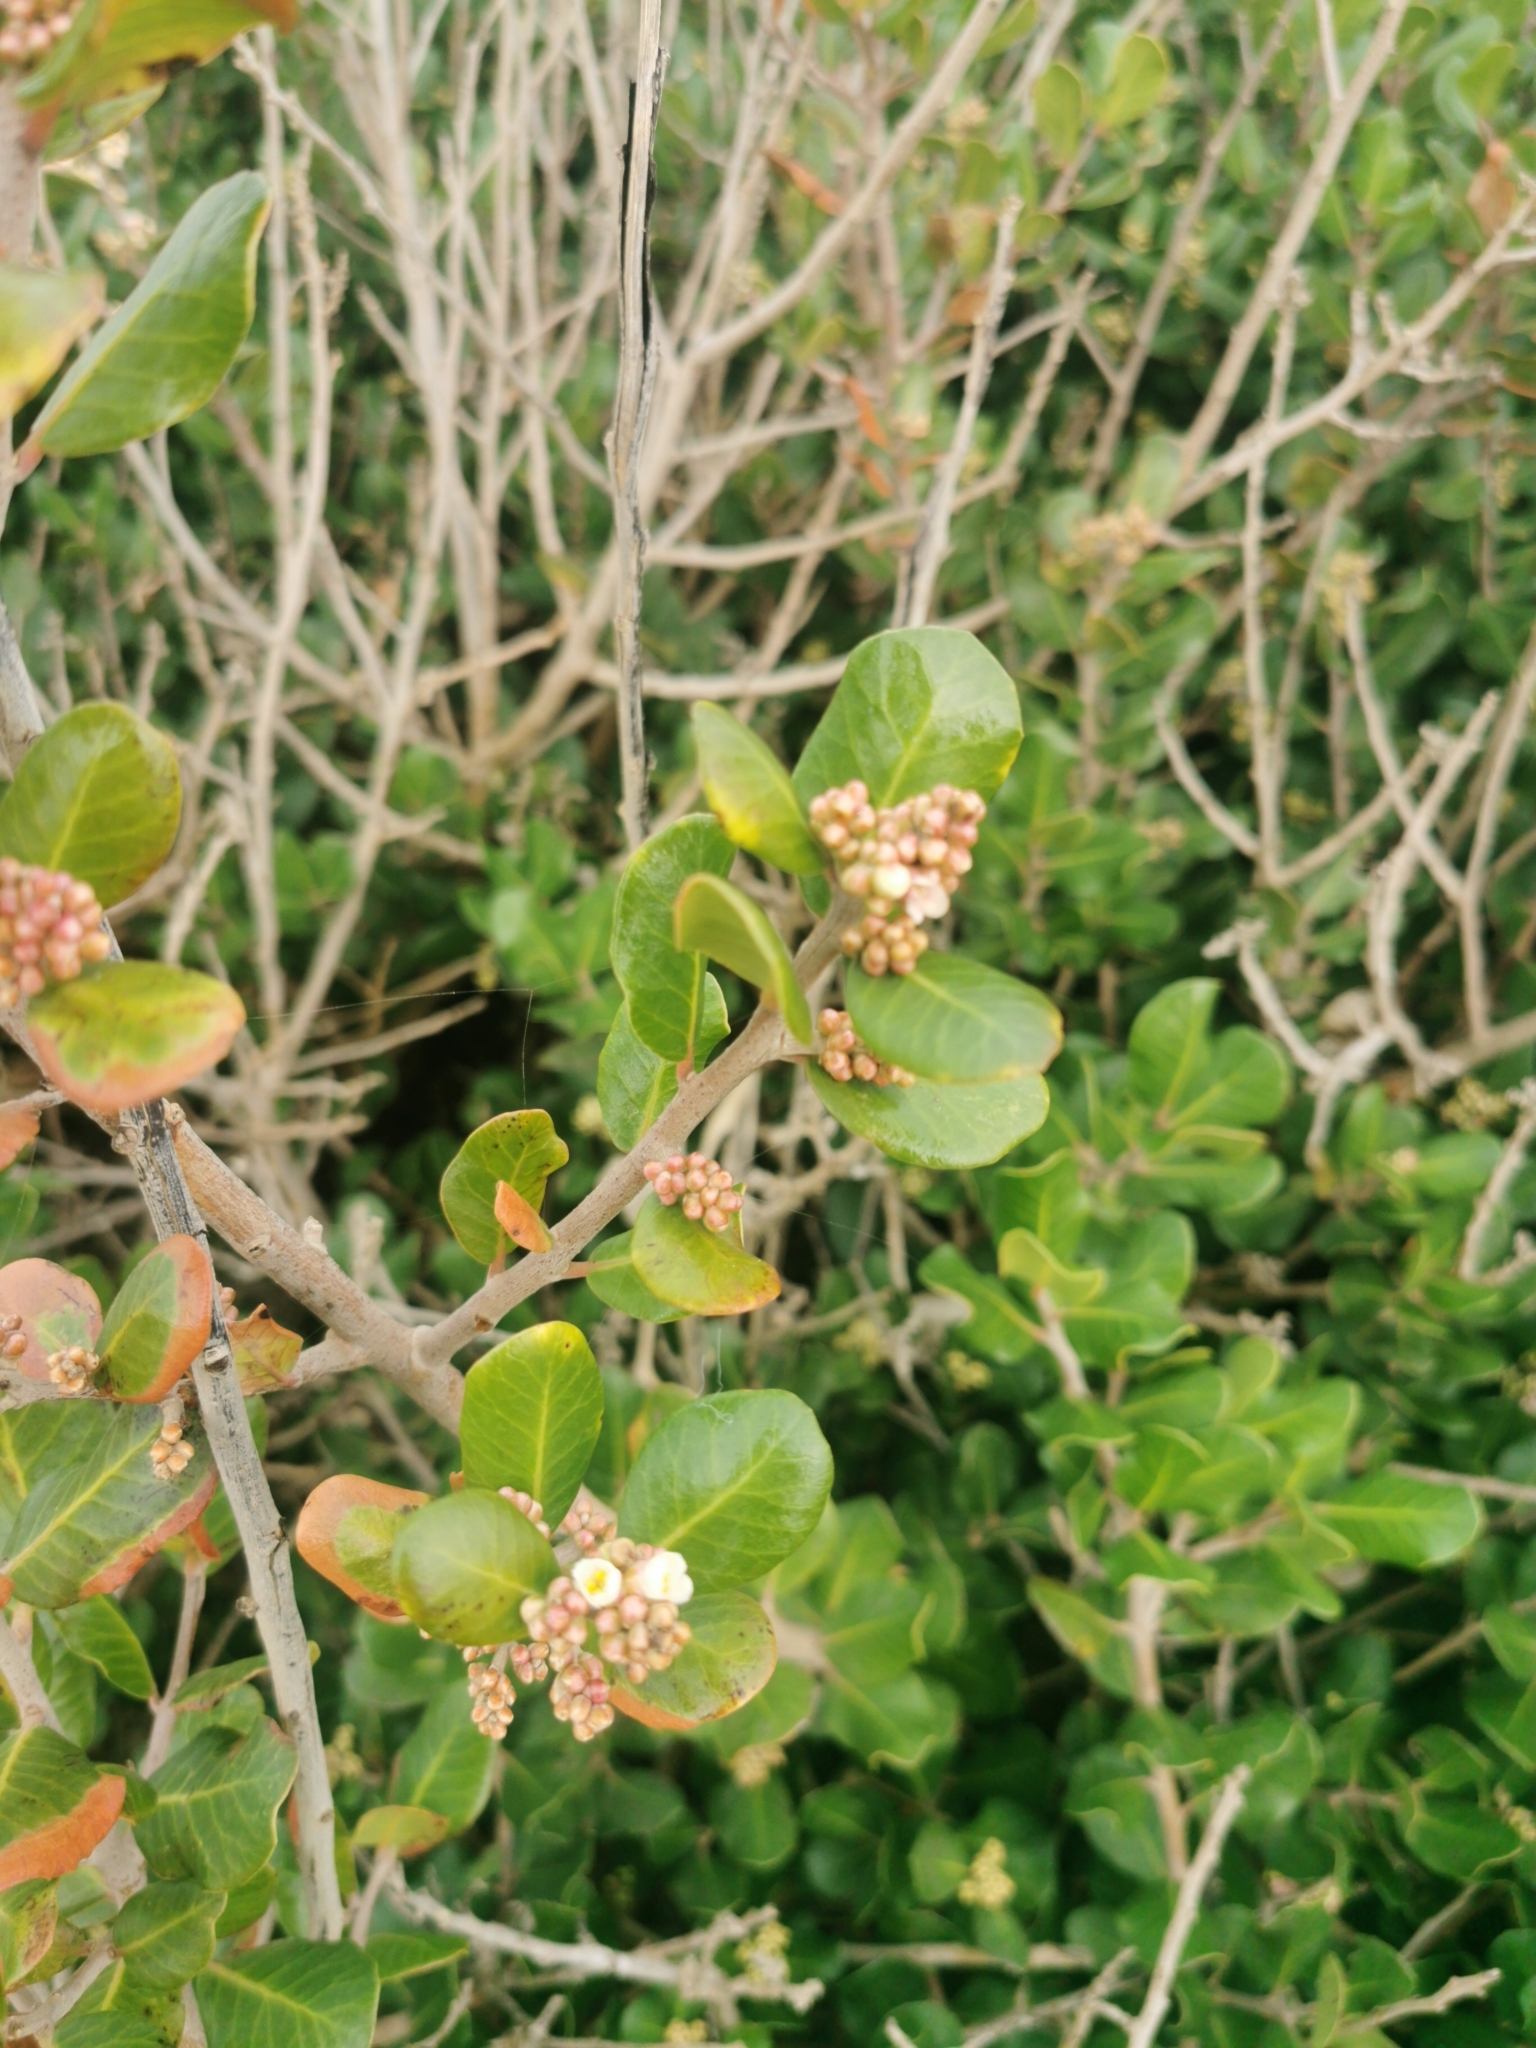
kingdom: Plantae
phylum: Tracheophyta
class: Magnoliopsida
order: Sapindales
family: Anacardiaceae
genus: Rhus
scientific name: Rhus integrifolia
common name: Lemonade sumac
